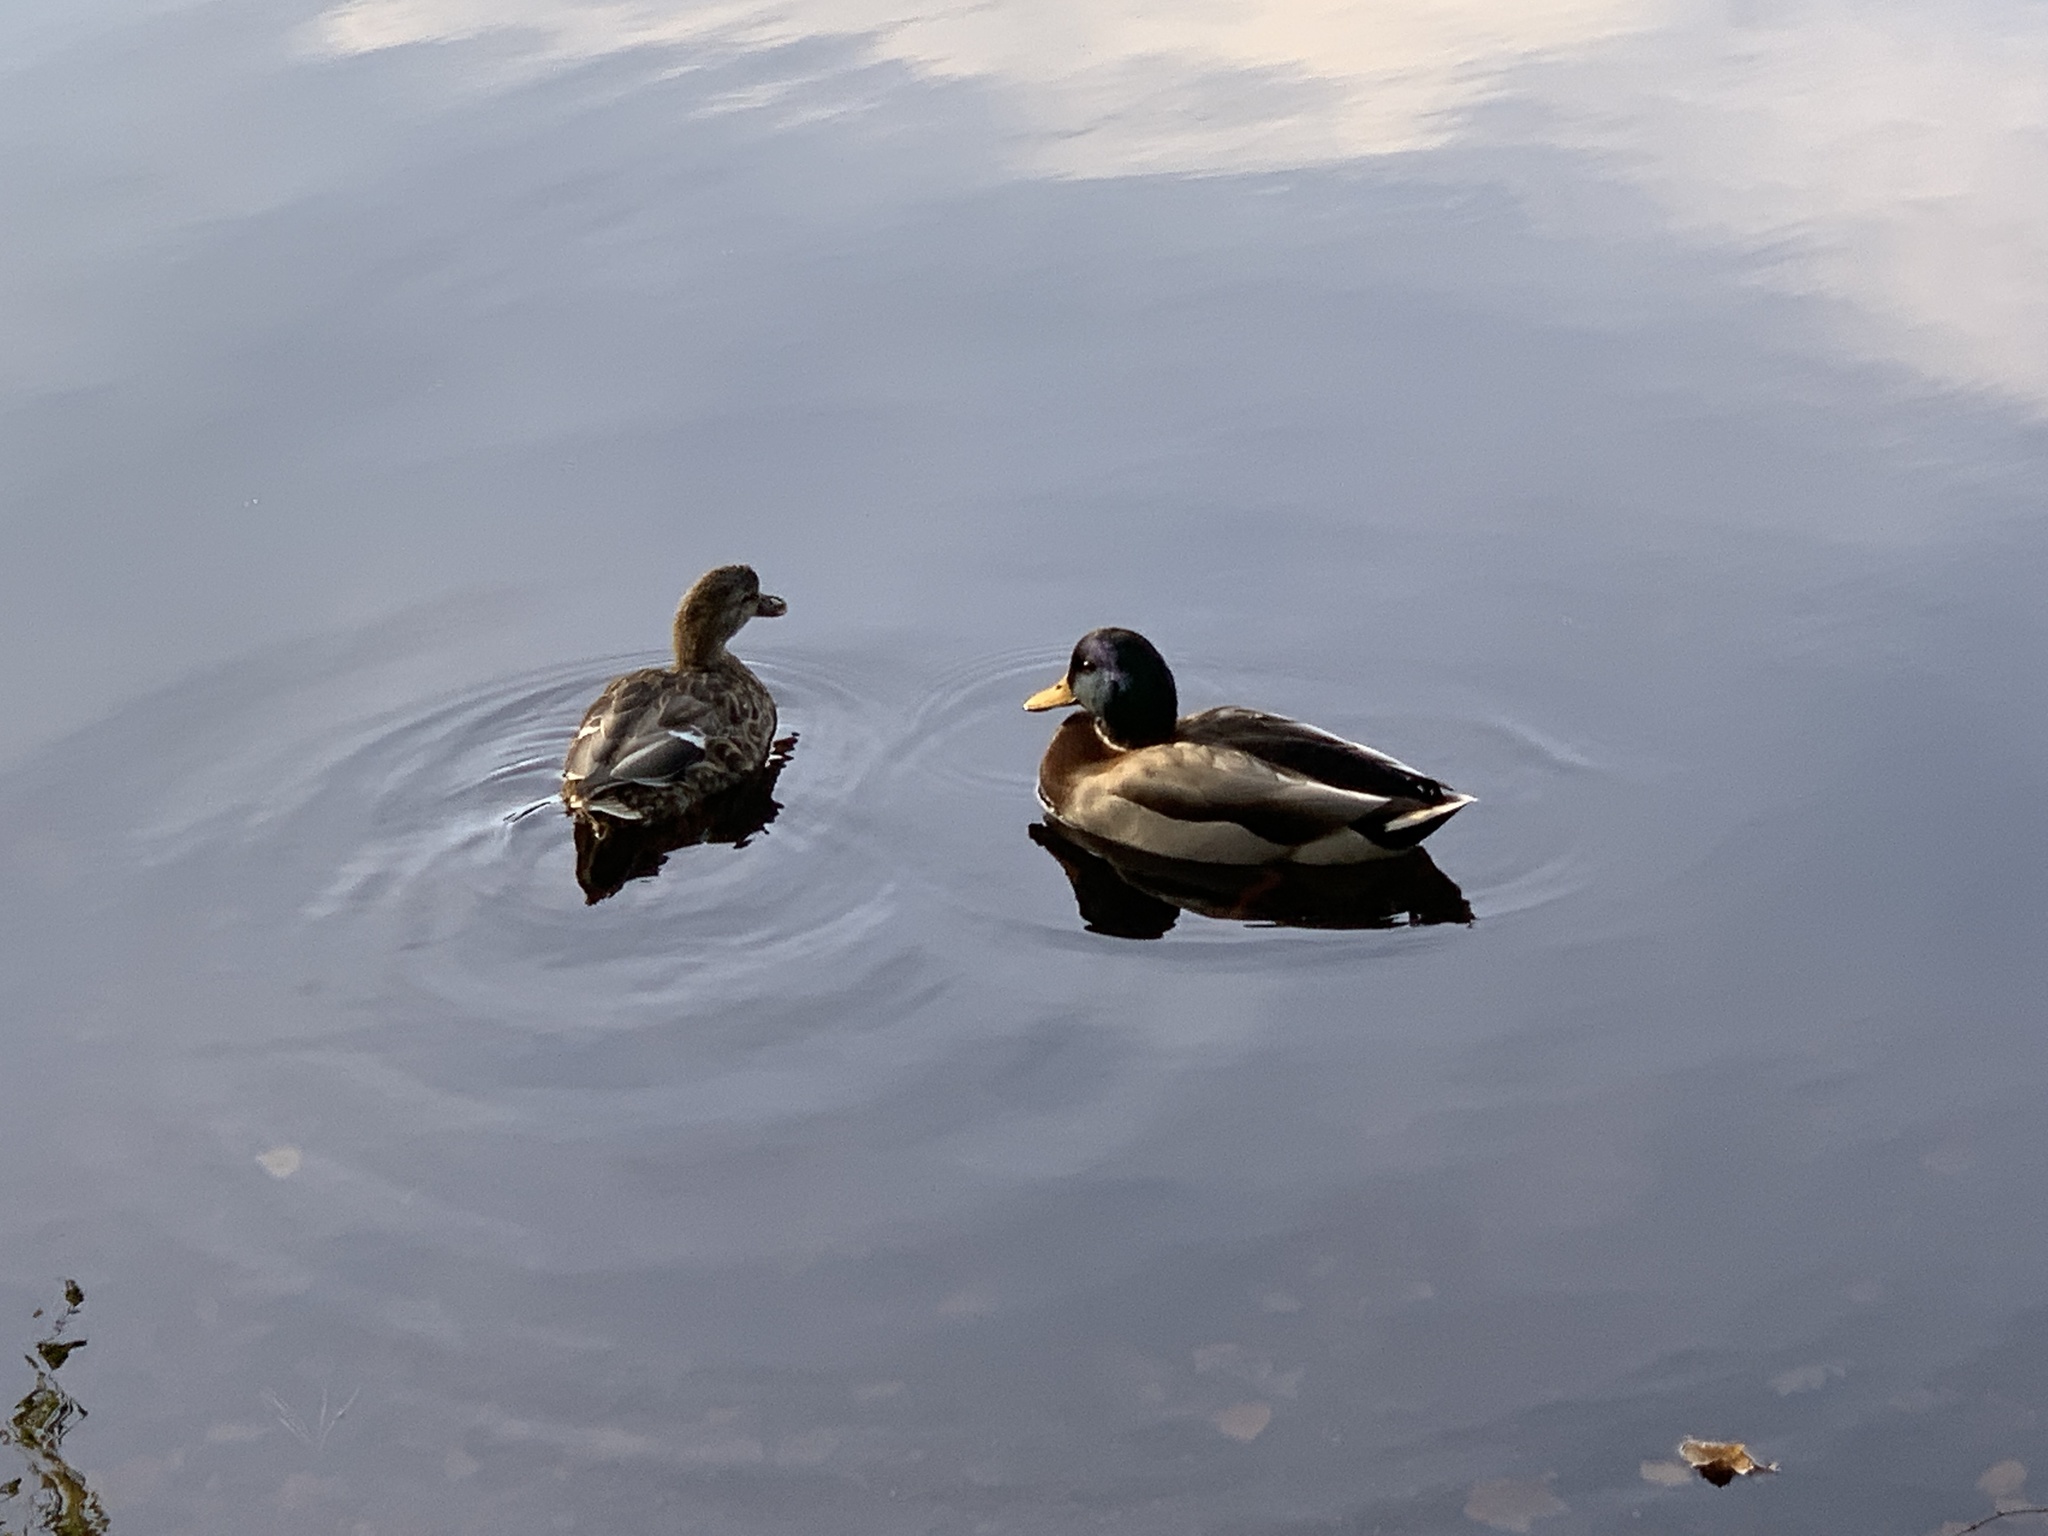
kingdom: Animalia
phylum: Chordata
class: Aves
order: Anseriformes
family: Anatidae
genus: Anas
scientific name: Anas platyrhynchos
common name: Mallard
